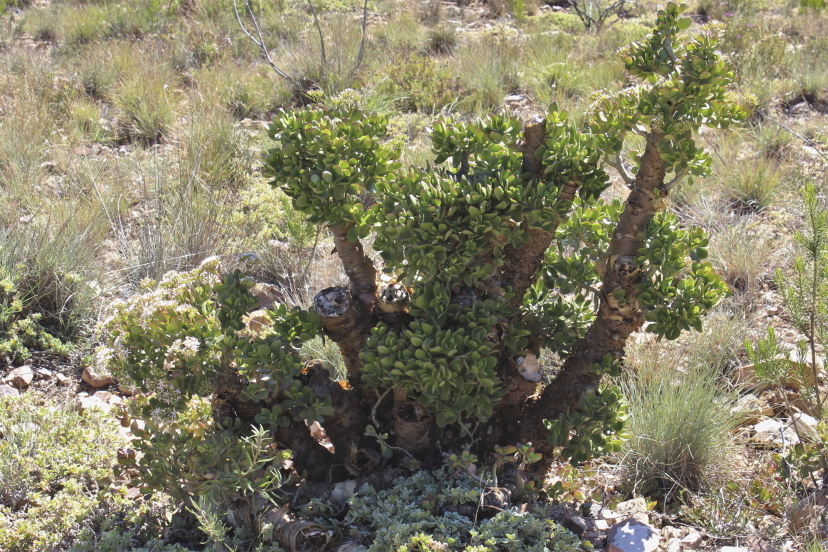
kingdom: Plantae
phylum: Tracheophyta
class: Magnoliopsida
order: Saxifragales
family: Crassulaceae
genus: Crassula
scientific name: Crassula ovata
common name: Jade plant
